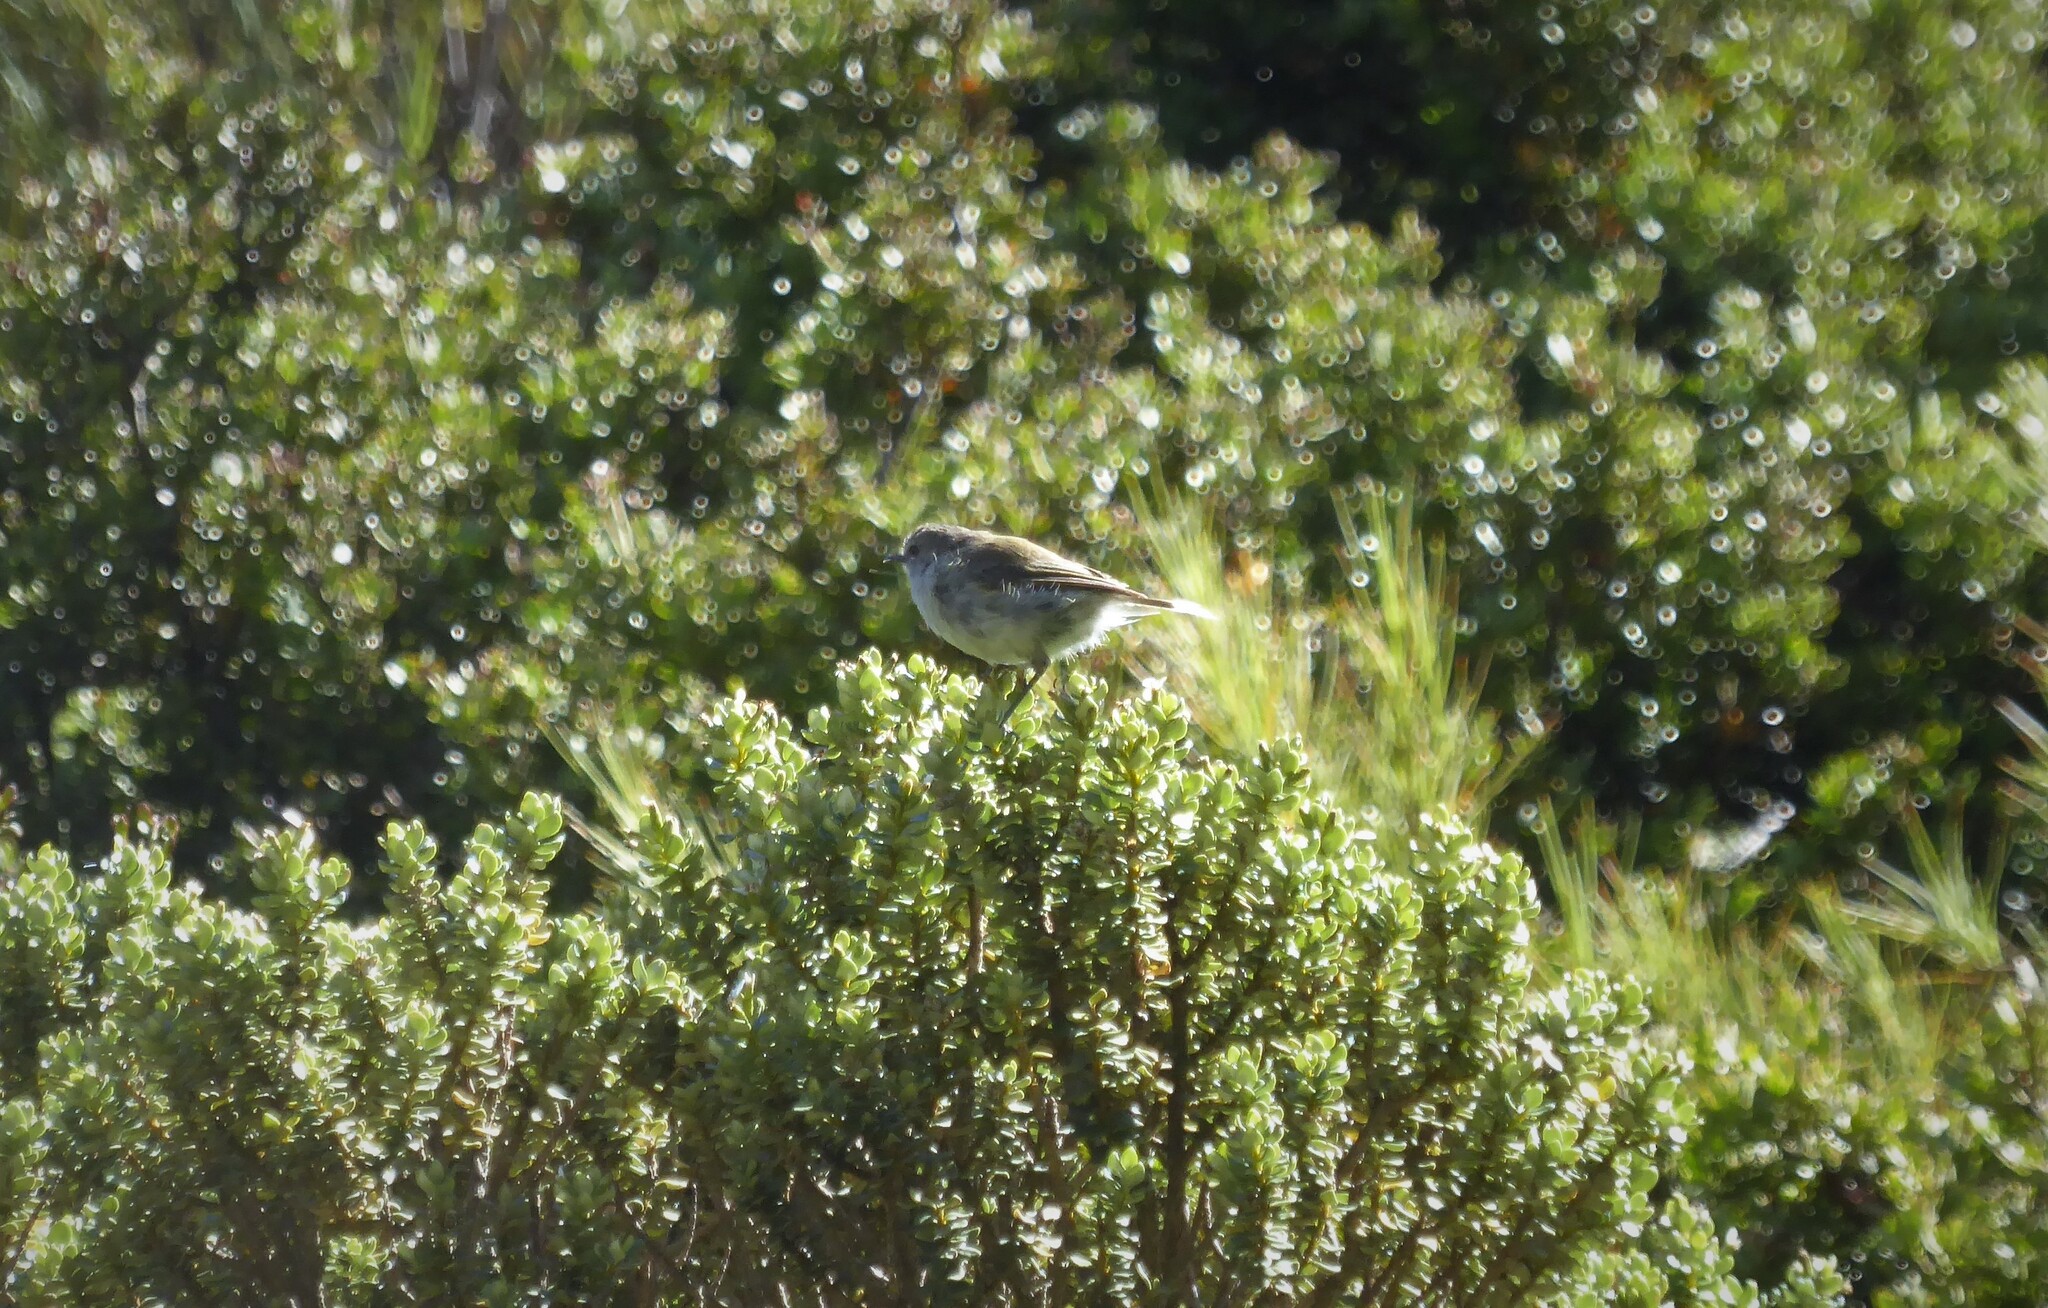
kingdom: Animalia
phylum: Chordata
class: Aves
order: Passeriformes
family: Acanthizidae
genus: Gerygone
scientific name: Gerygone igata
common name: Grey gerygone
